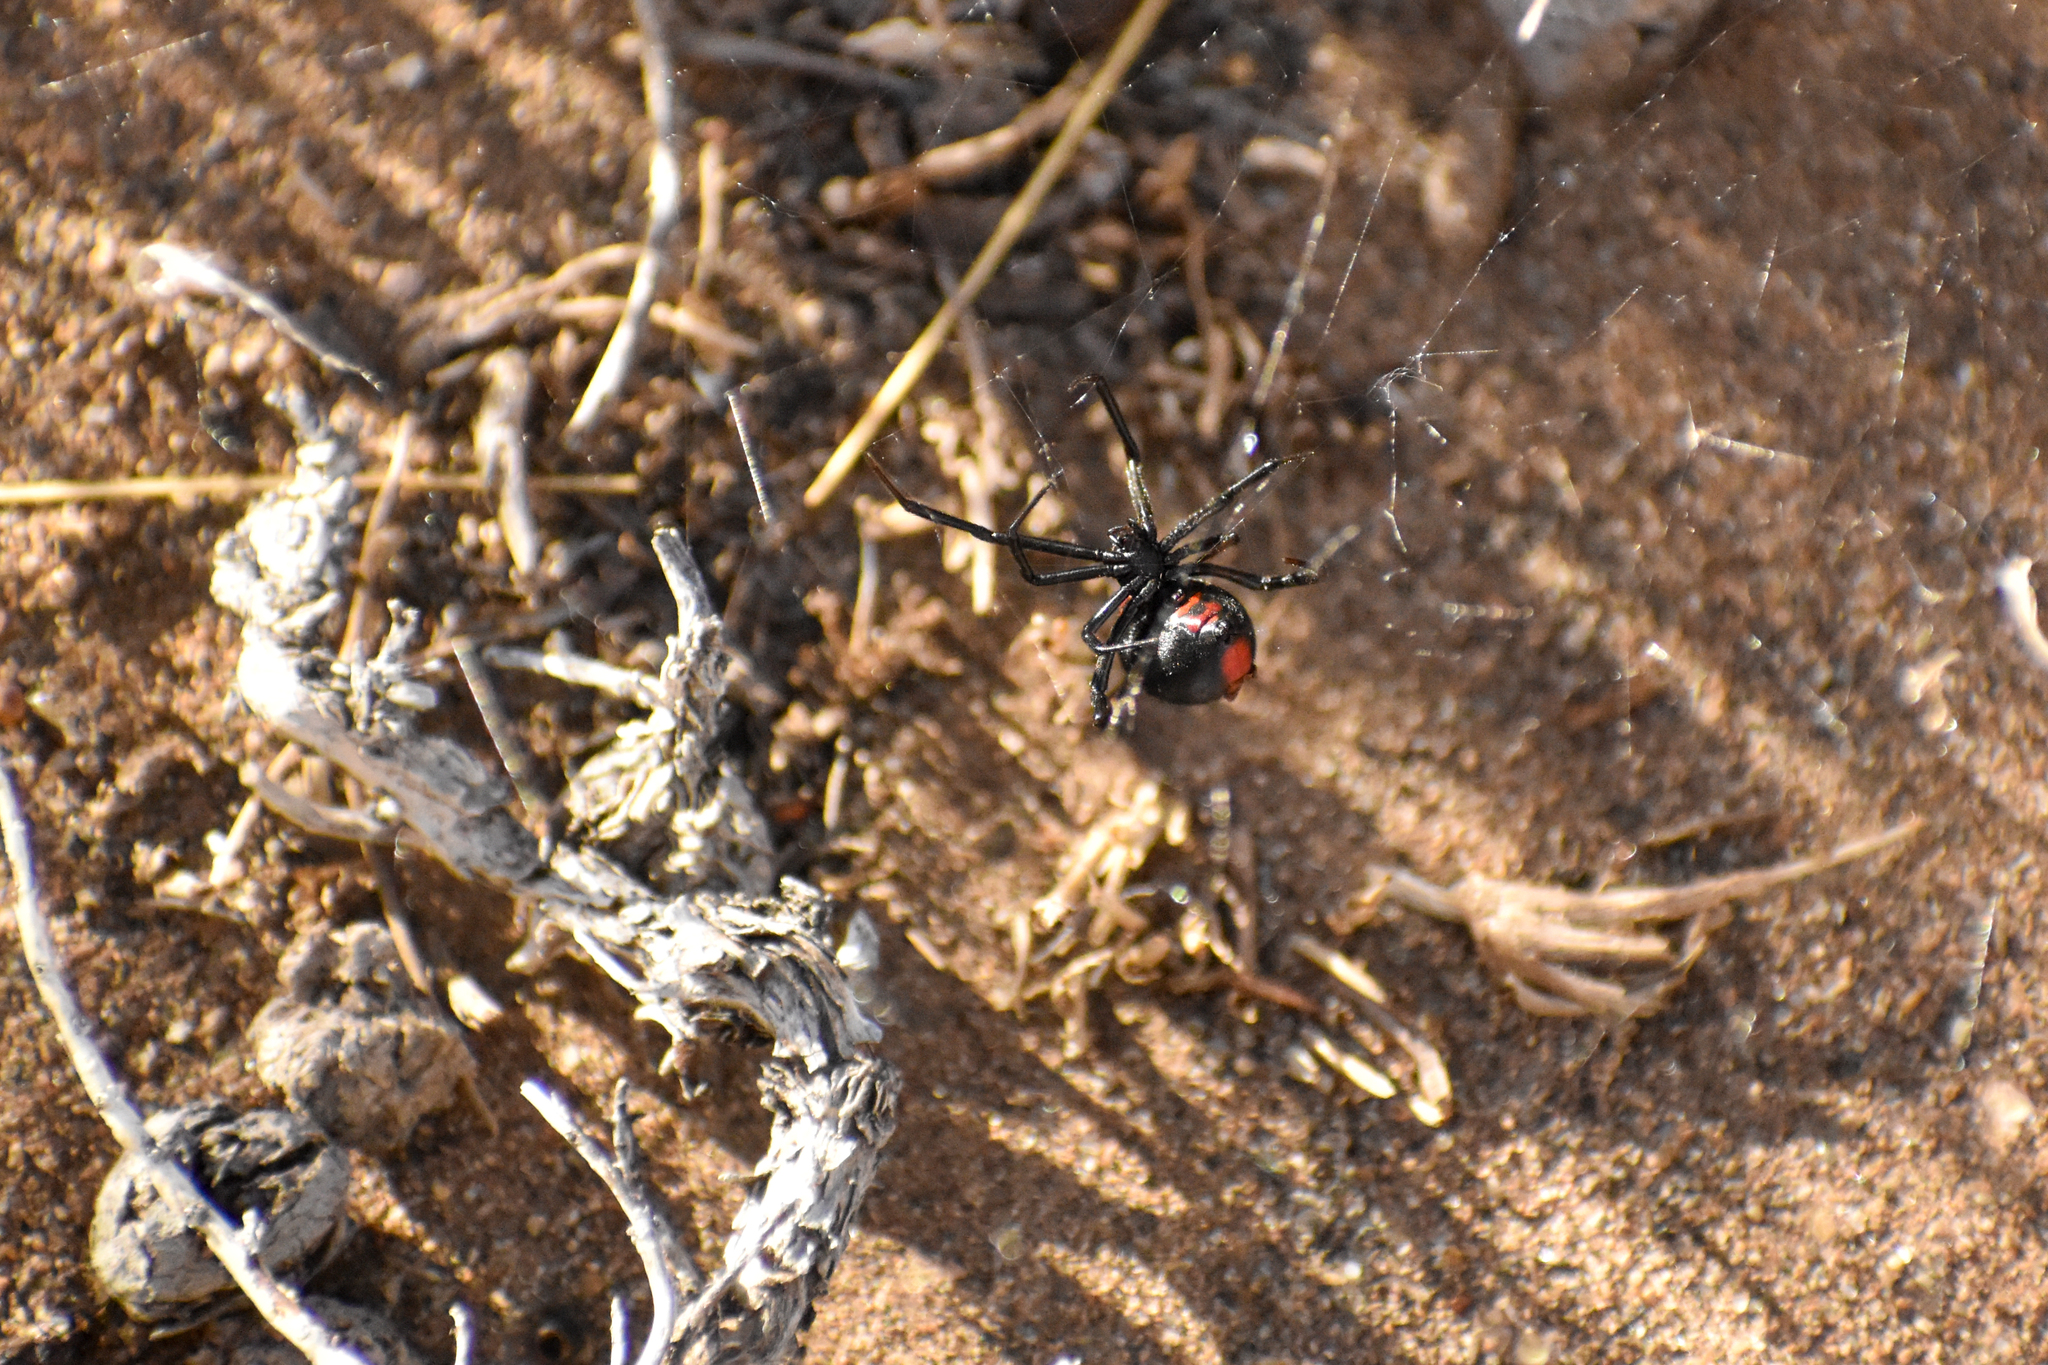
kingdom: Animalia
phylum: Arthropoda
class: Arachnida
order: Araneae
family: Theridiidae
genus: Latrodectus
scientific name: Latrodectus mirabilis
